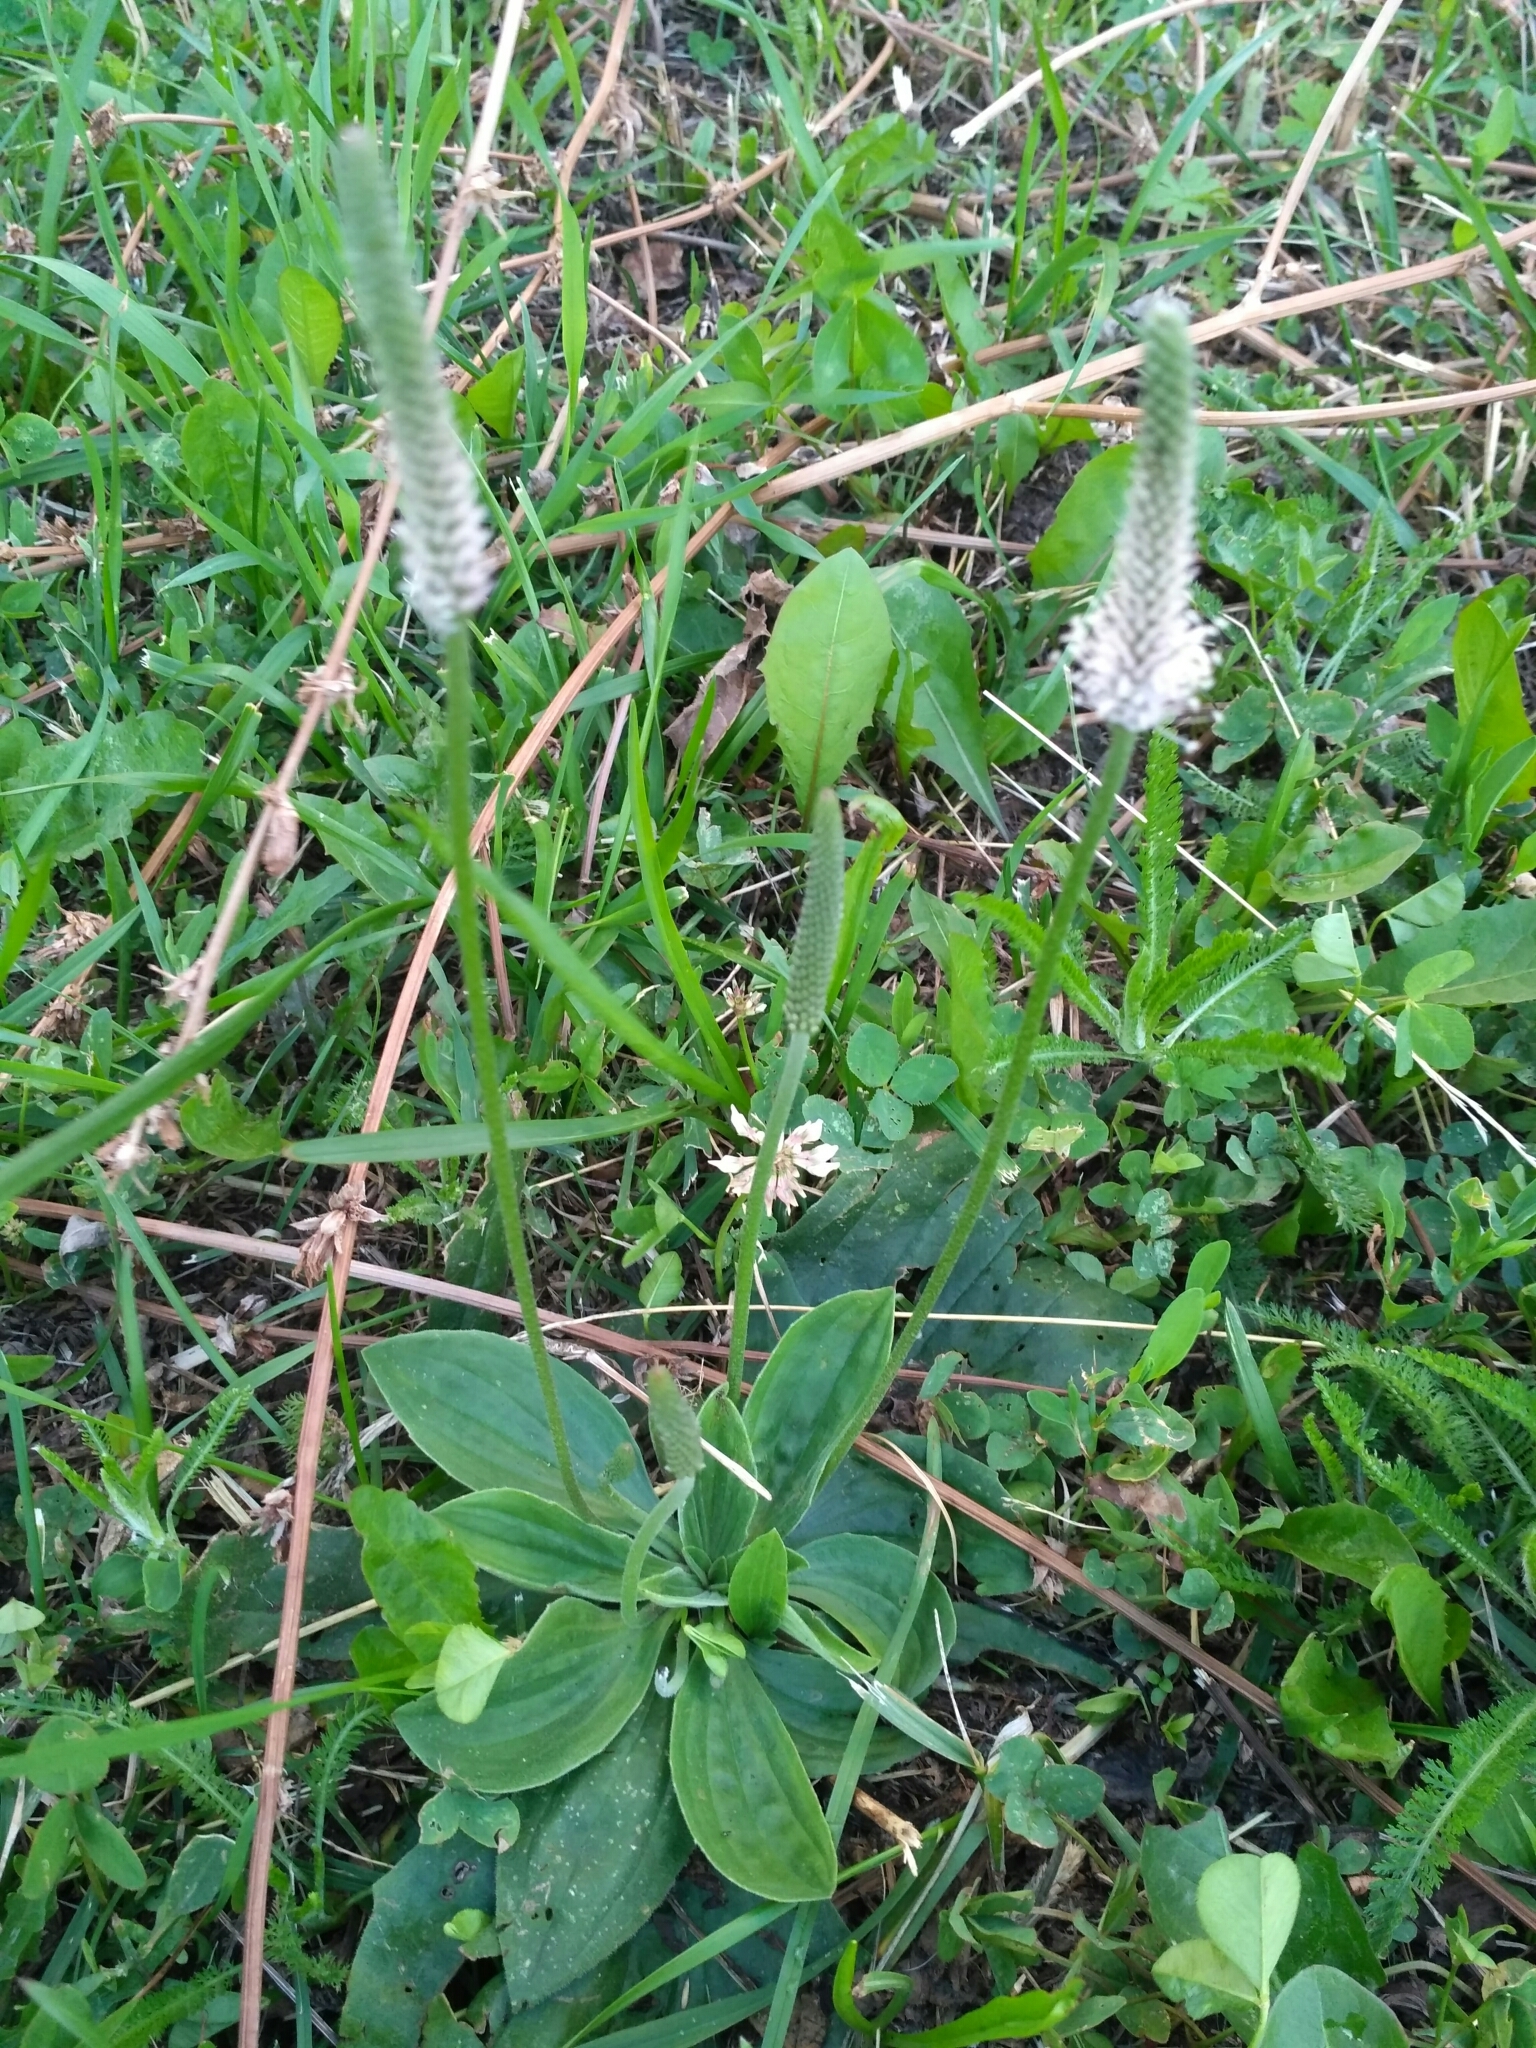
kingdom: Plantae
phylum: Tracheophyta
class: Magnoliopsida
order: Lamiales
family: Plantaginaceae
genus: Plantago
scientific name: Plantago media
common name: Hoary plantain
